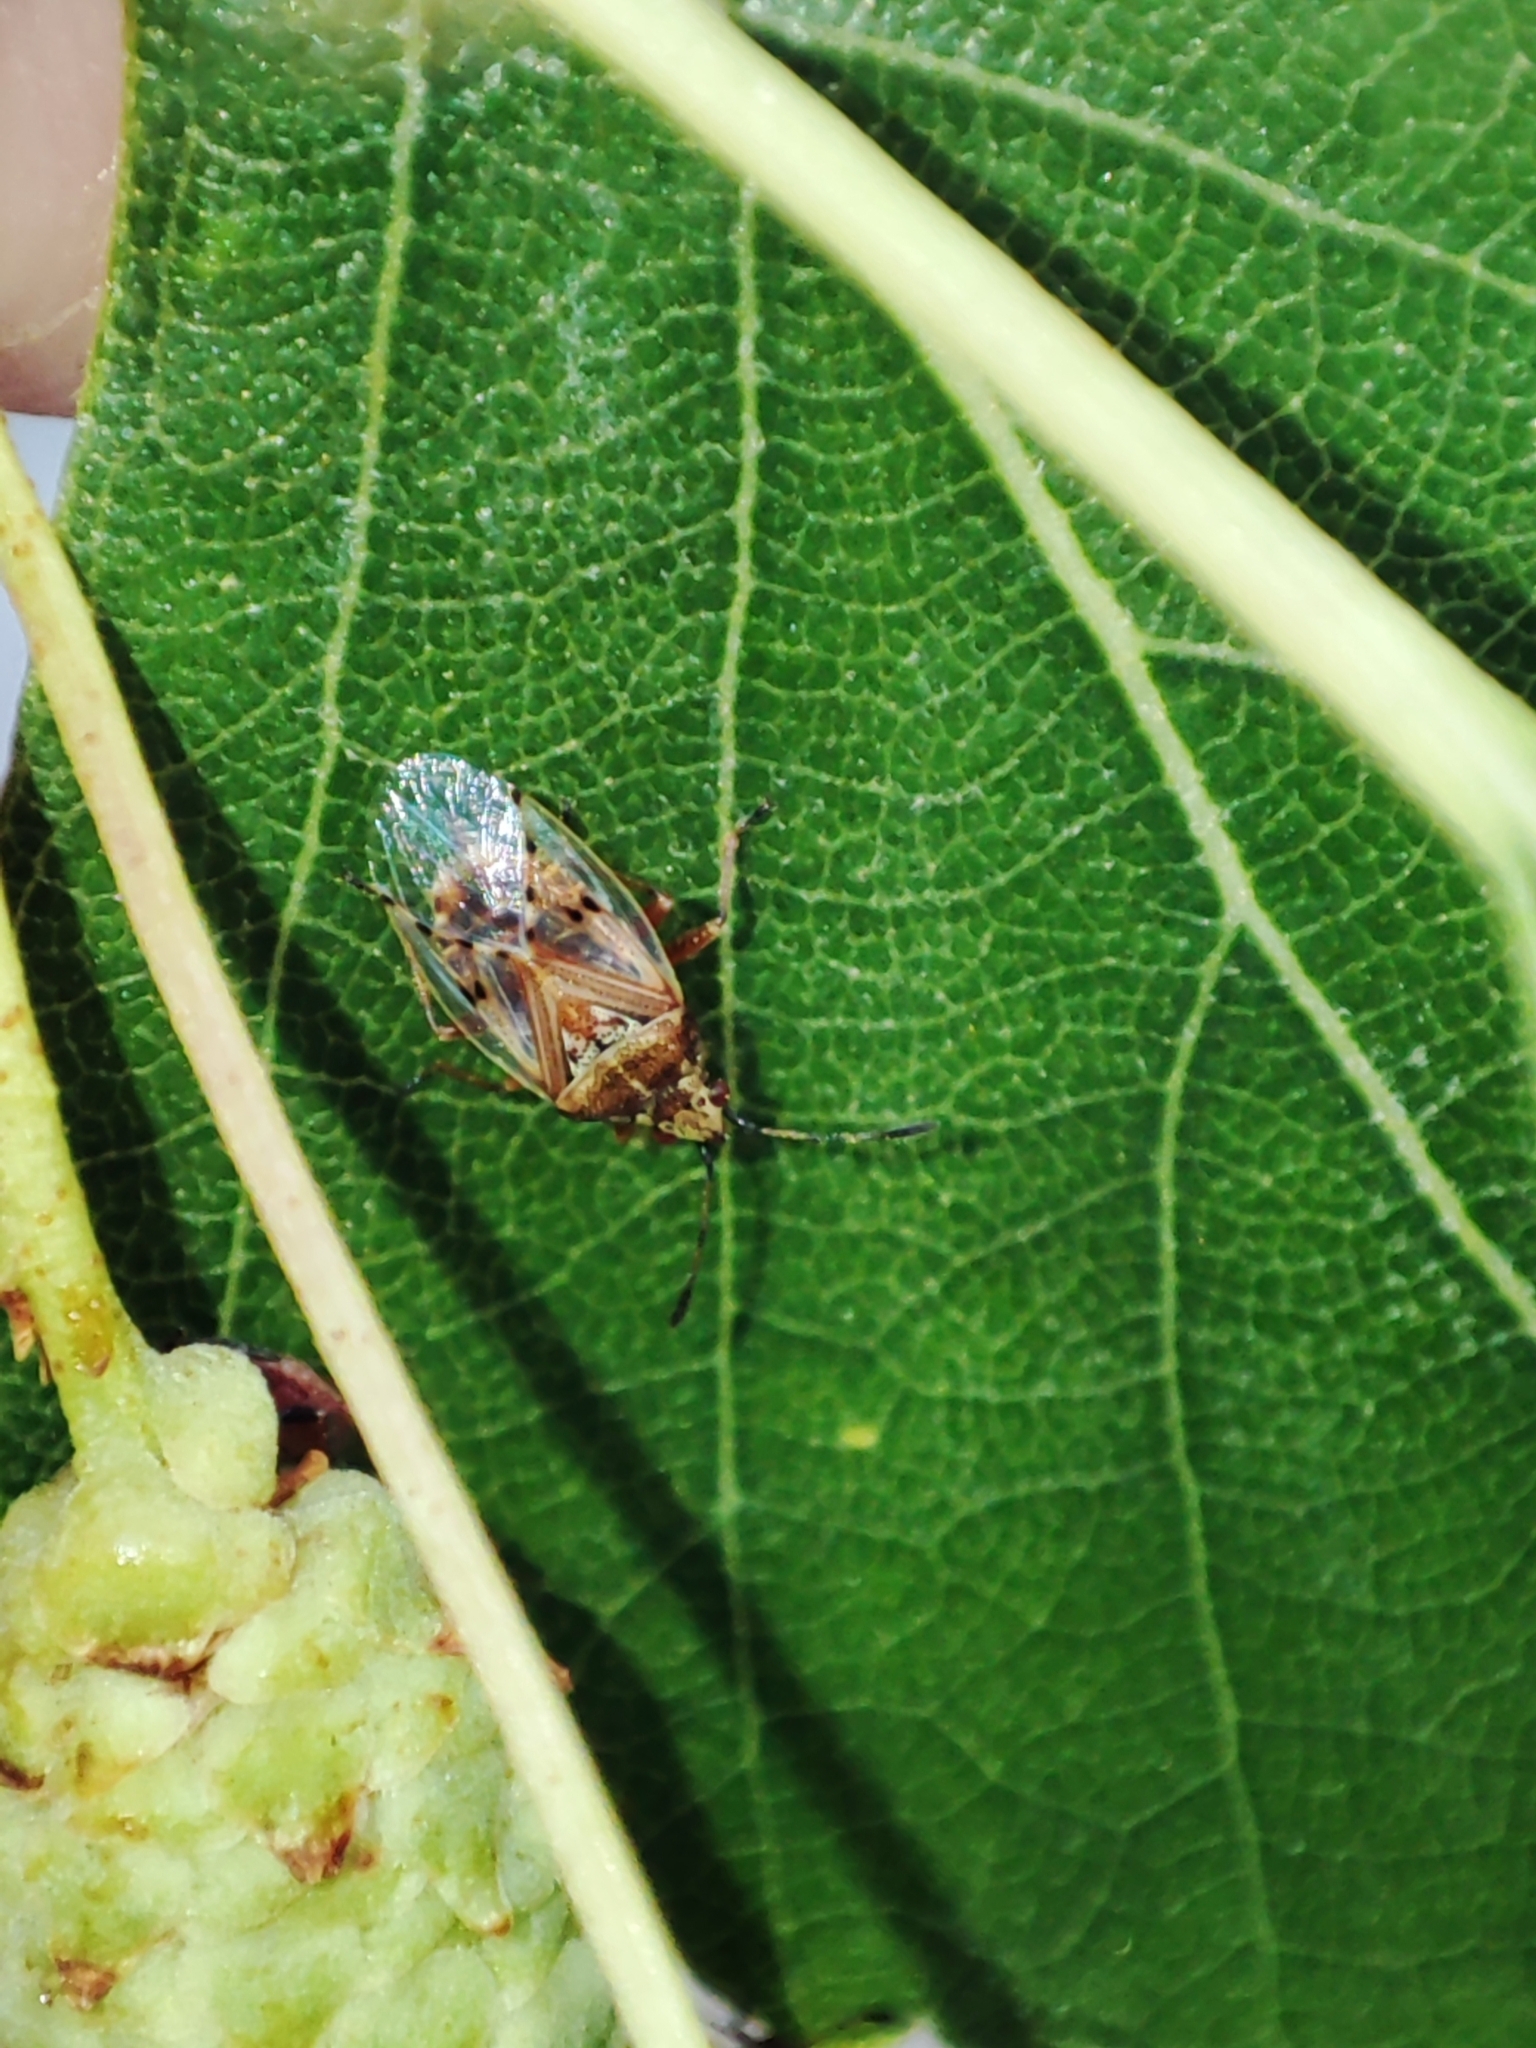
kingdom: Animalia
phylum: Arthropoda
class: Insecta
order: Hemiptera
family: Lygaeidae
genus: Kleidocerys
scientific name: Kleidocerys resedae
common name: Birch catkin bug
